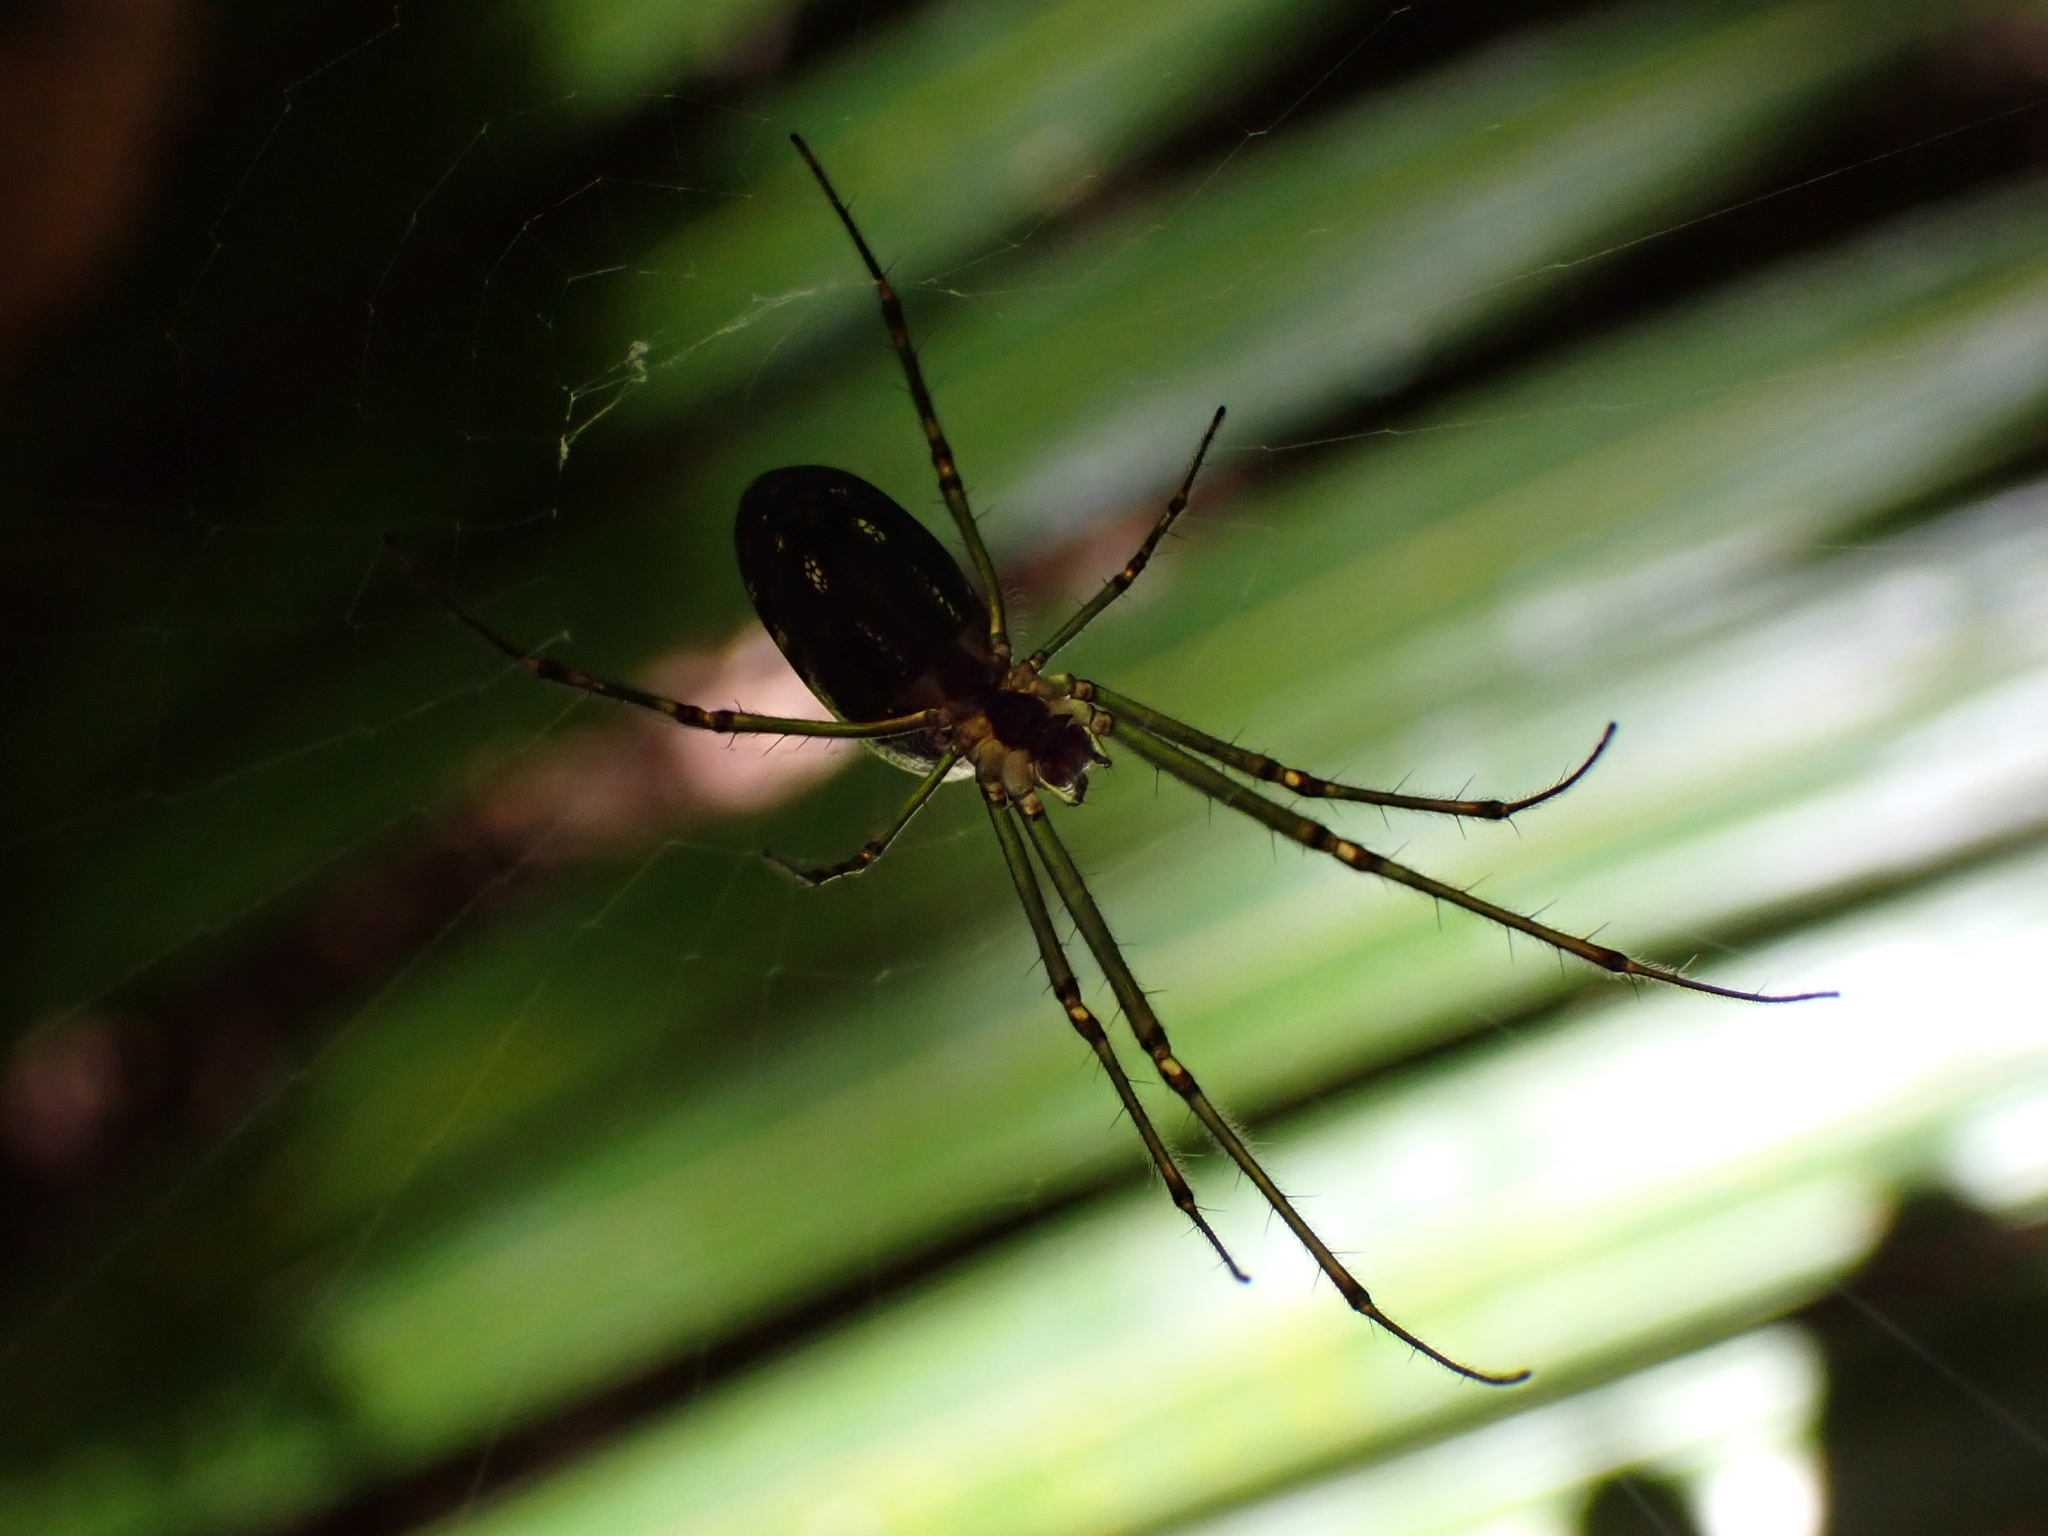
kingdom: Animalia
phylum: Arthropoda
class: Arachnida
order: Araneae
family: Tetragnathidae
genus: Leucauge
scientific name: Leucauge dromedaria
